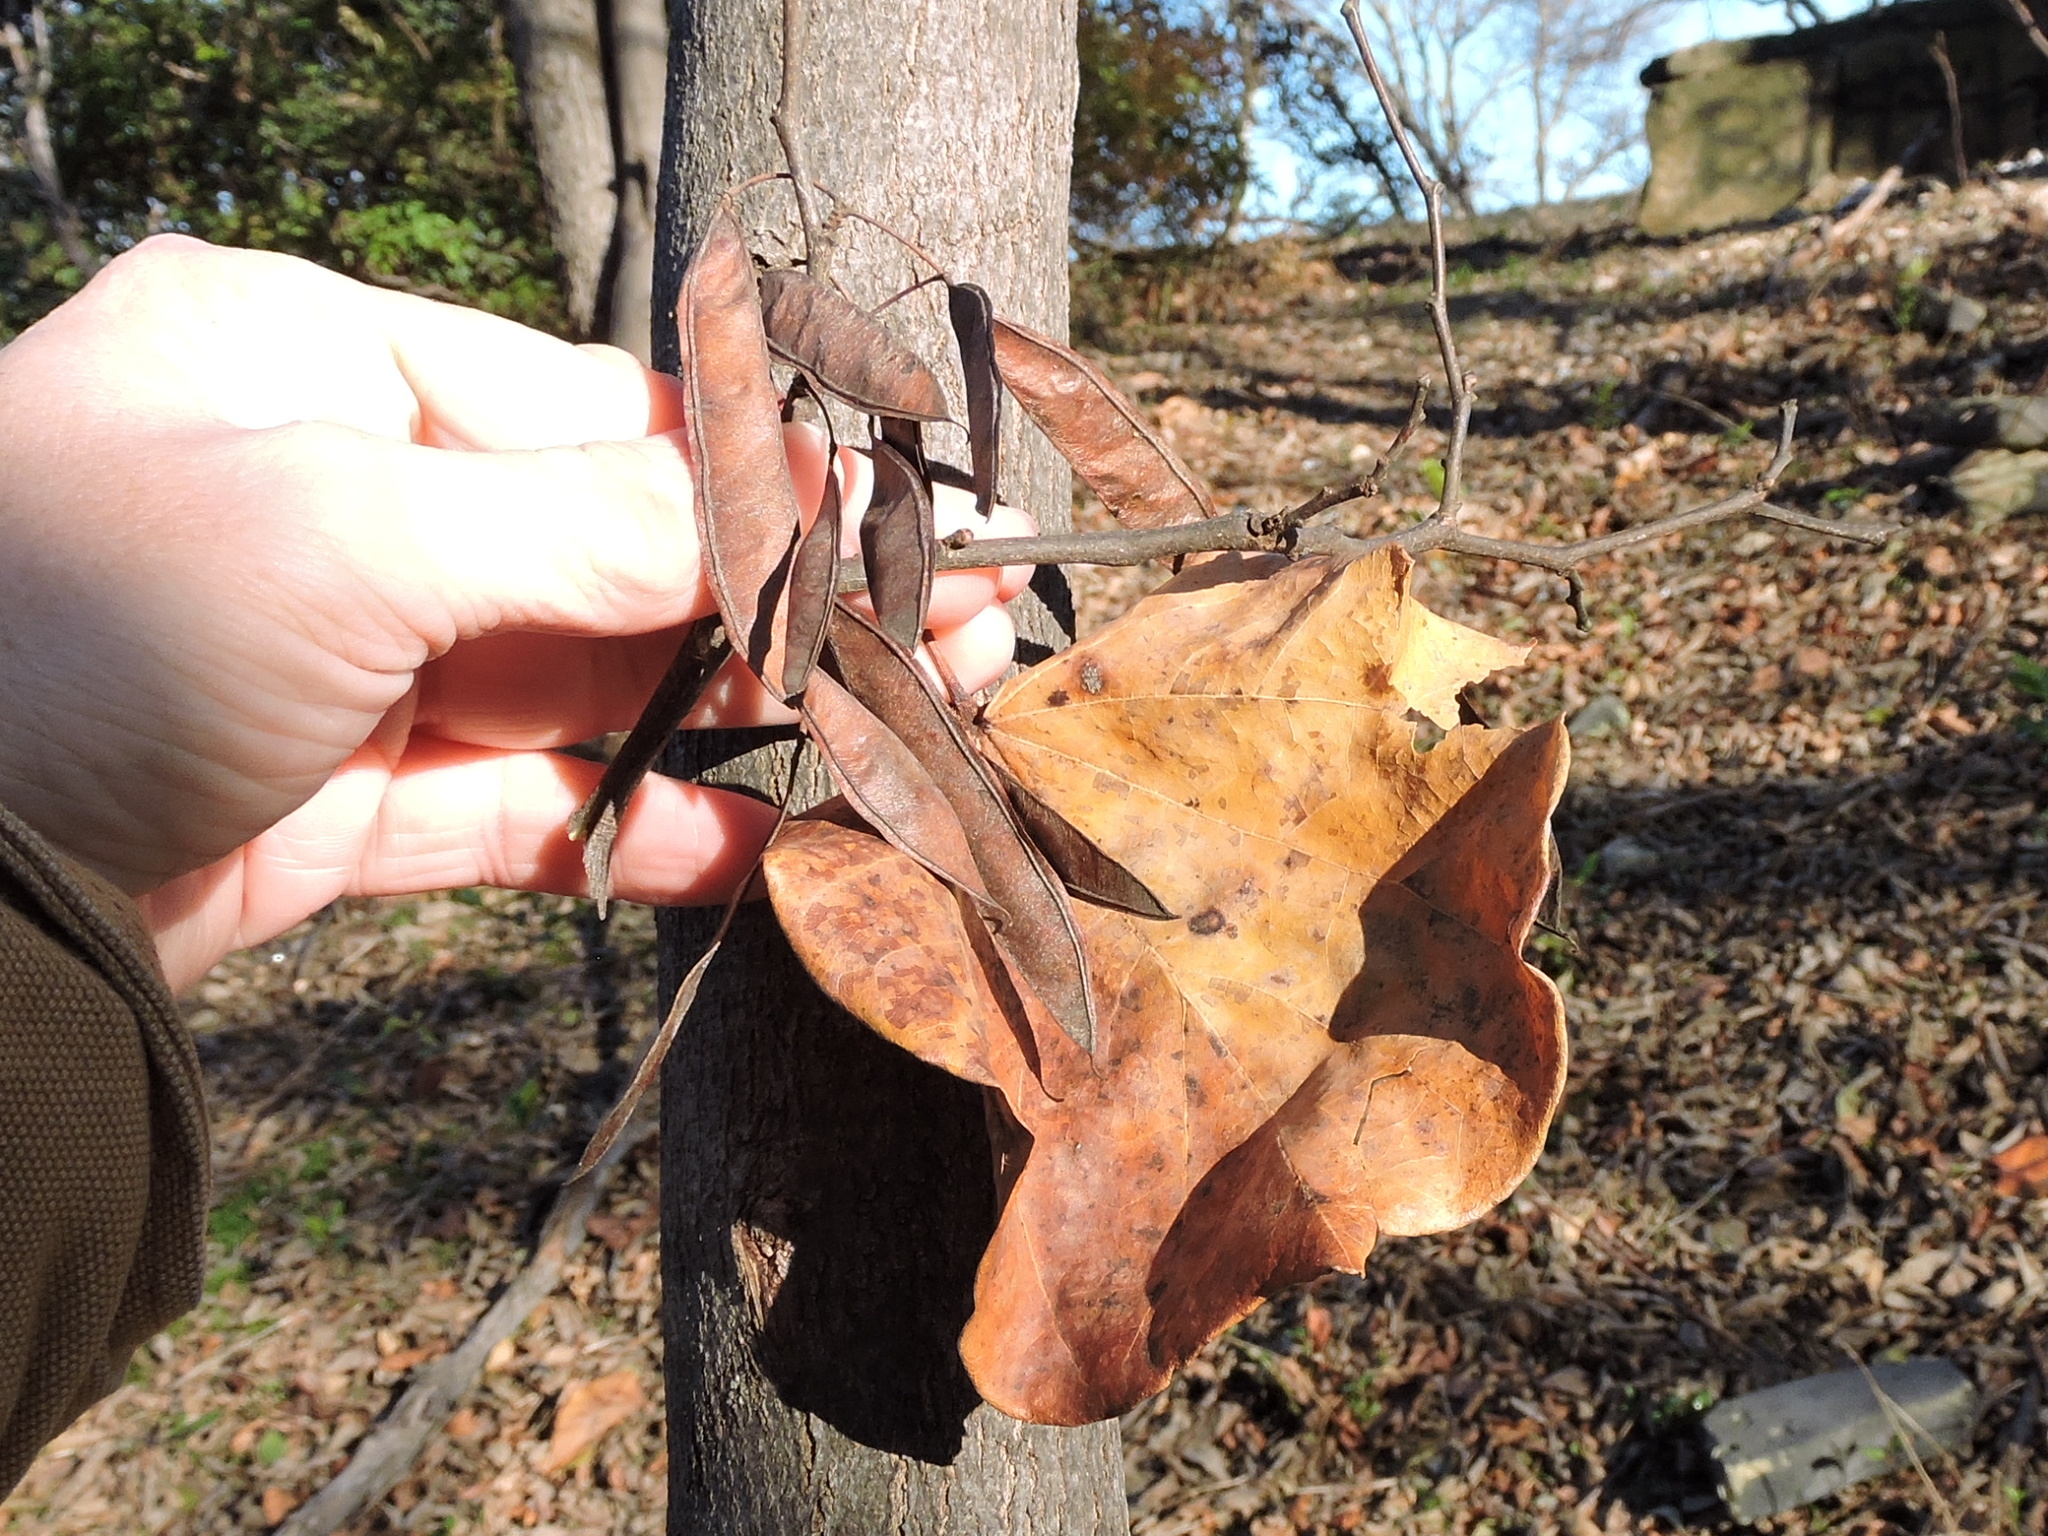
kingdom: Plantae
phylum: Tracheophyta
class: Magnoliopsida
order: Fabales
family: Fabaceae
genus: Cercis
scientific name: Cercis canadensis
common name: Eastern redbud
